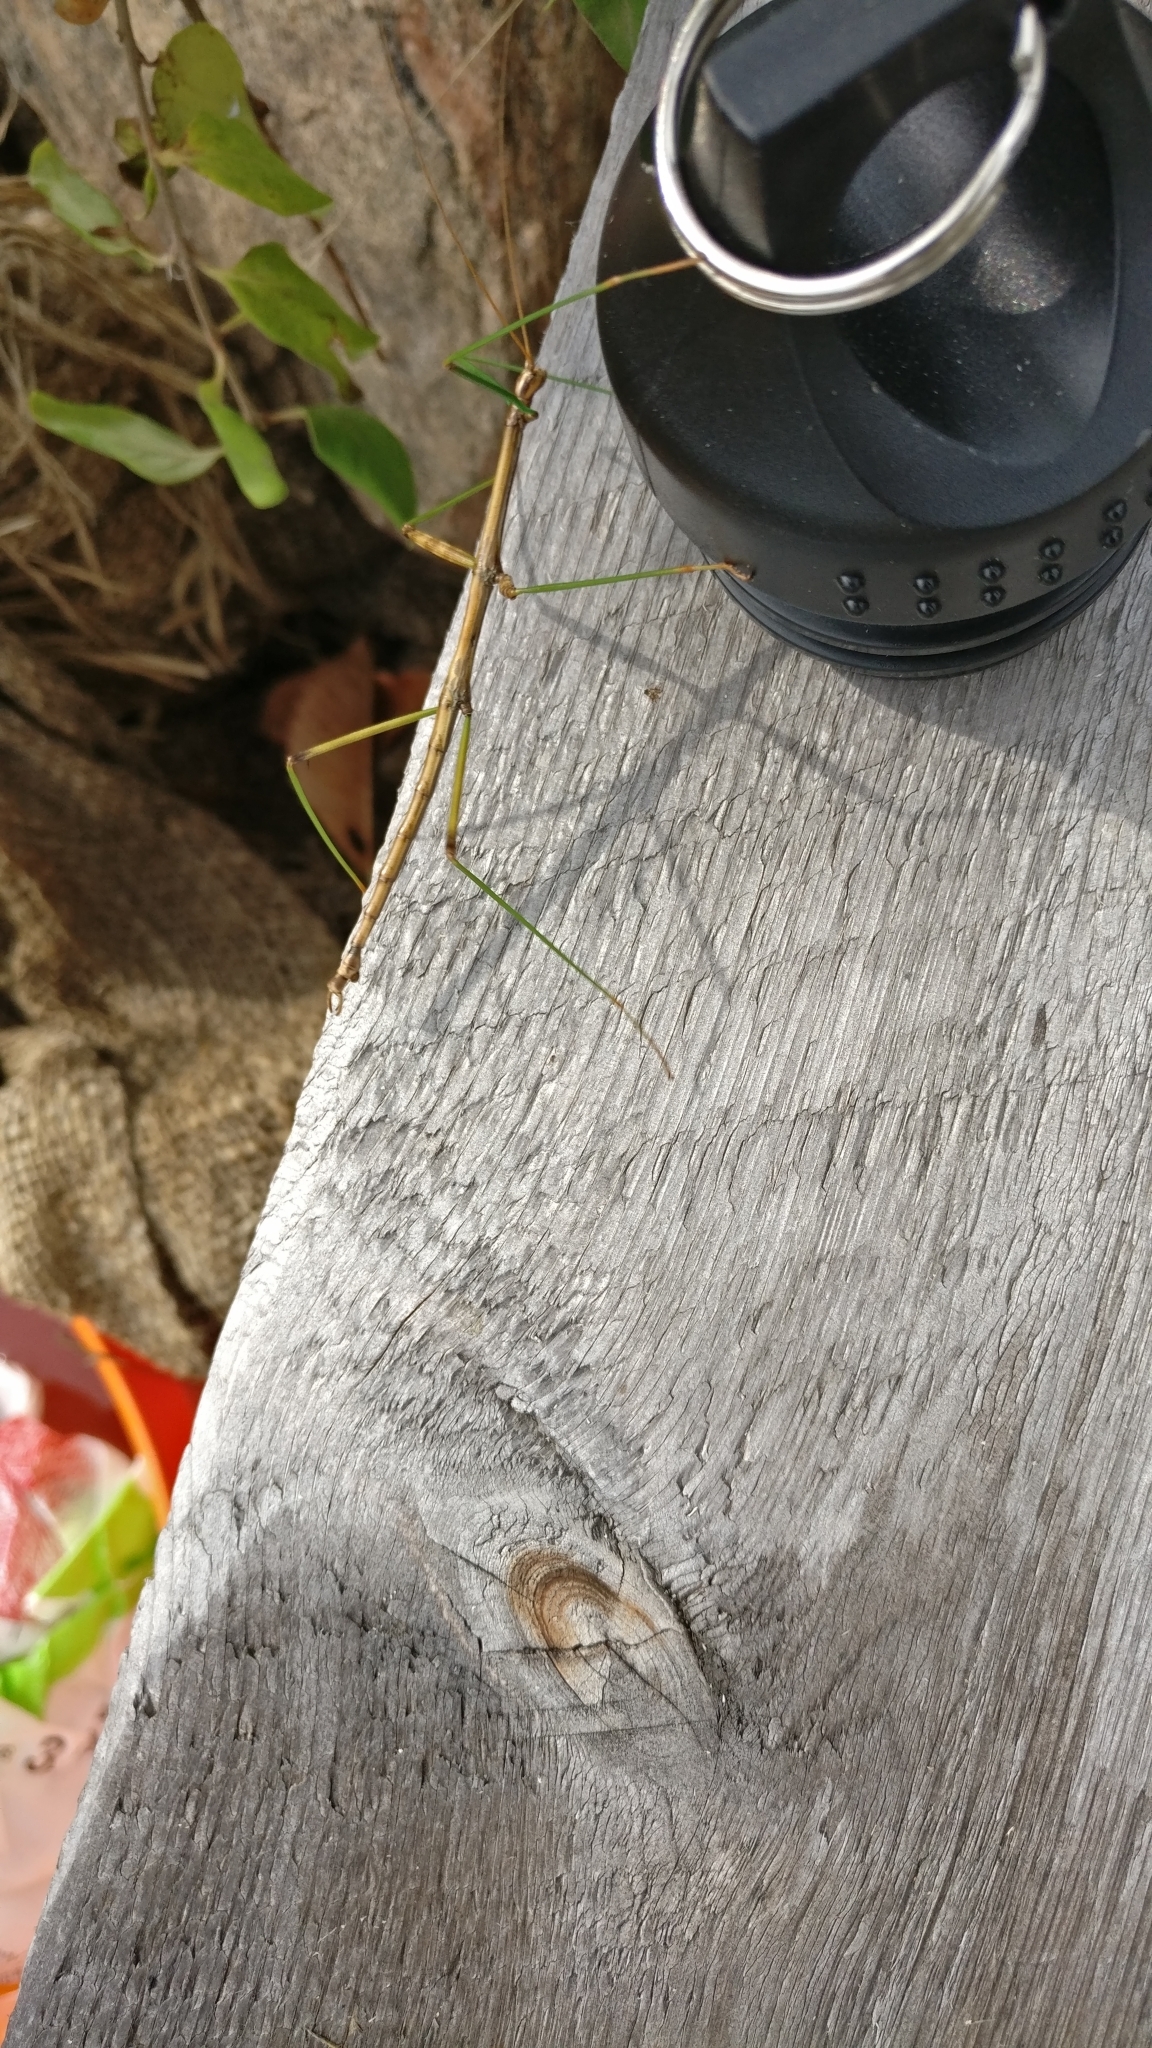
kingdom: Animalia
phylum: Arthropoda
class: Insecta
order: Phasmida
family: Diapheromeridae
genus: Diapheromera
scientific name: Diapheromera femorata
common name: Common american walkingstick
